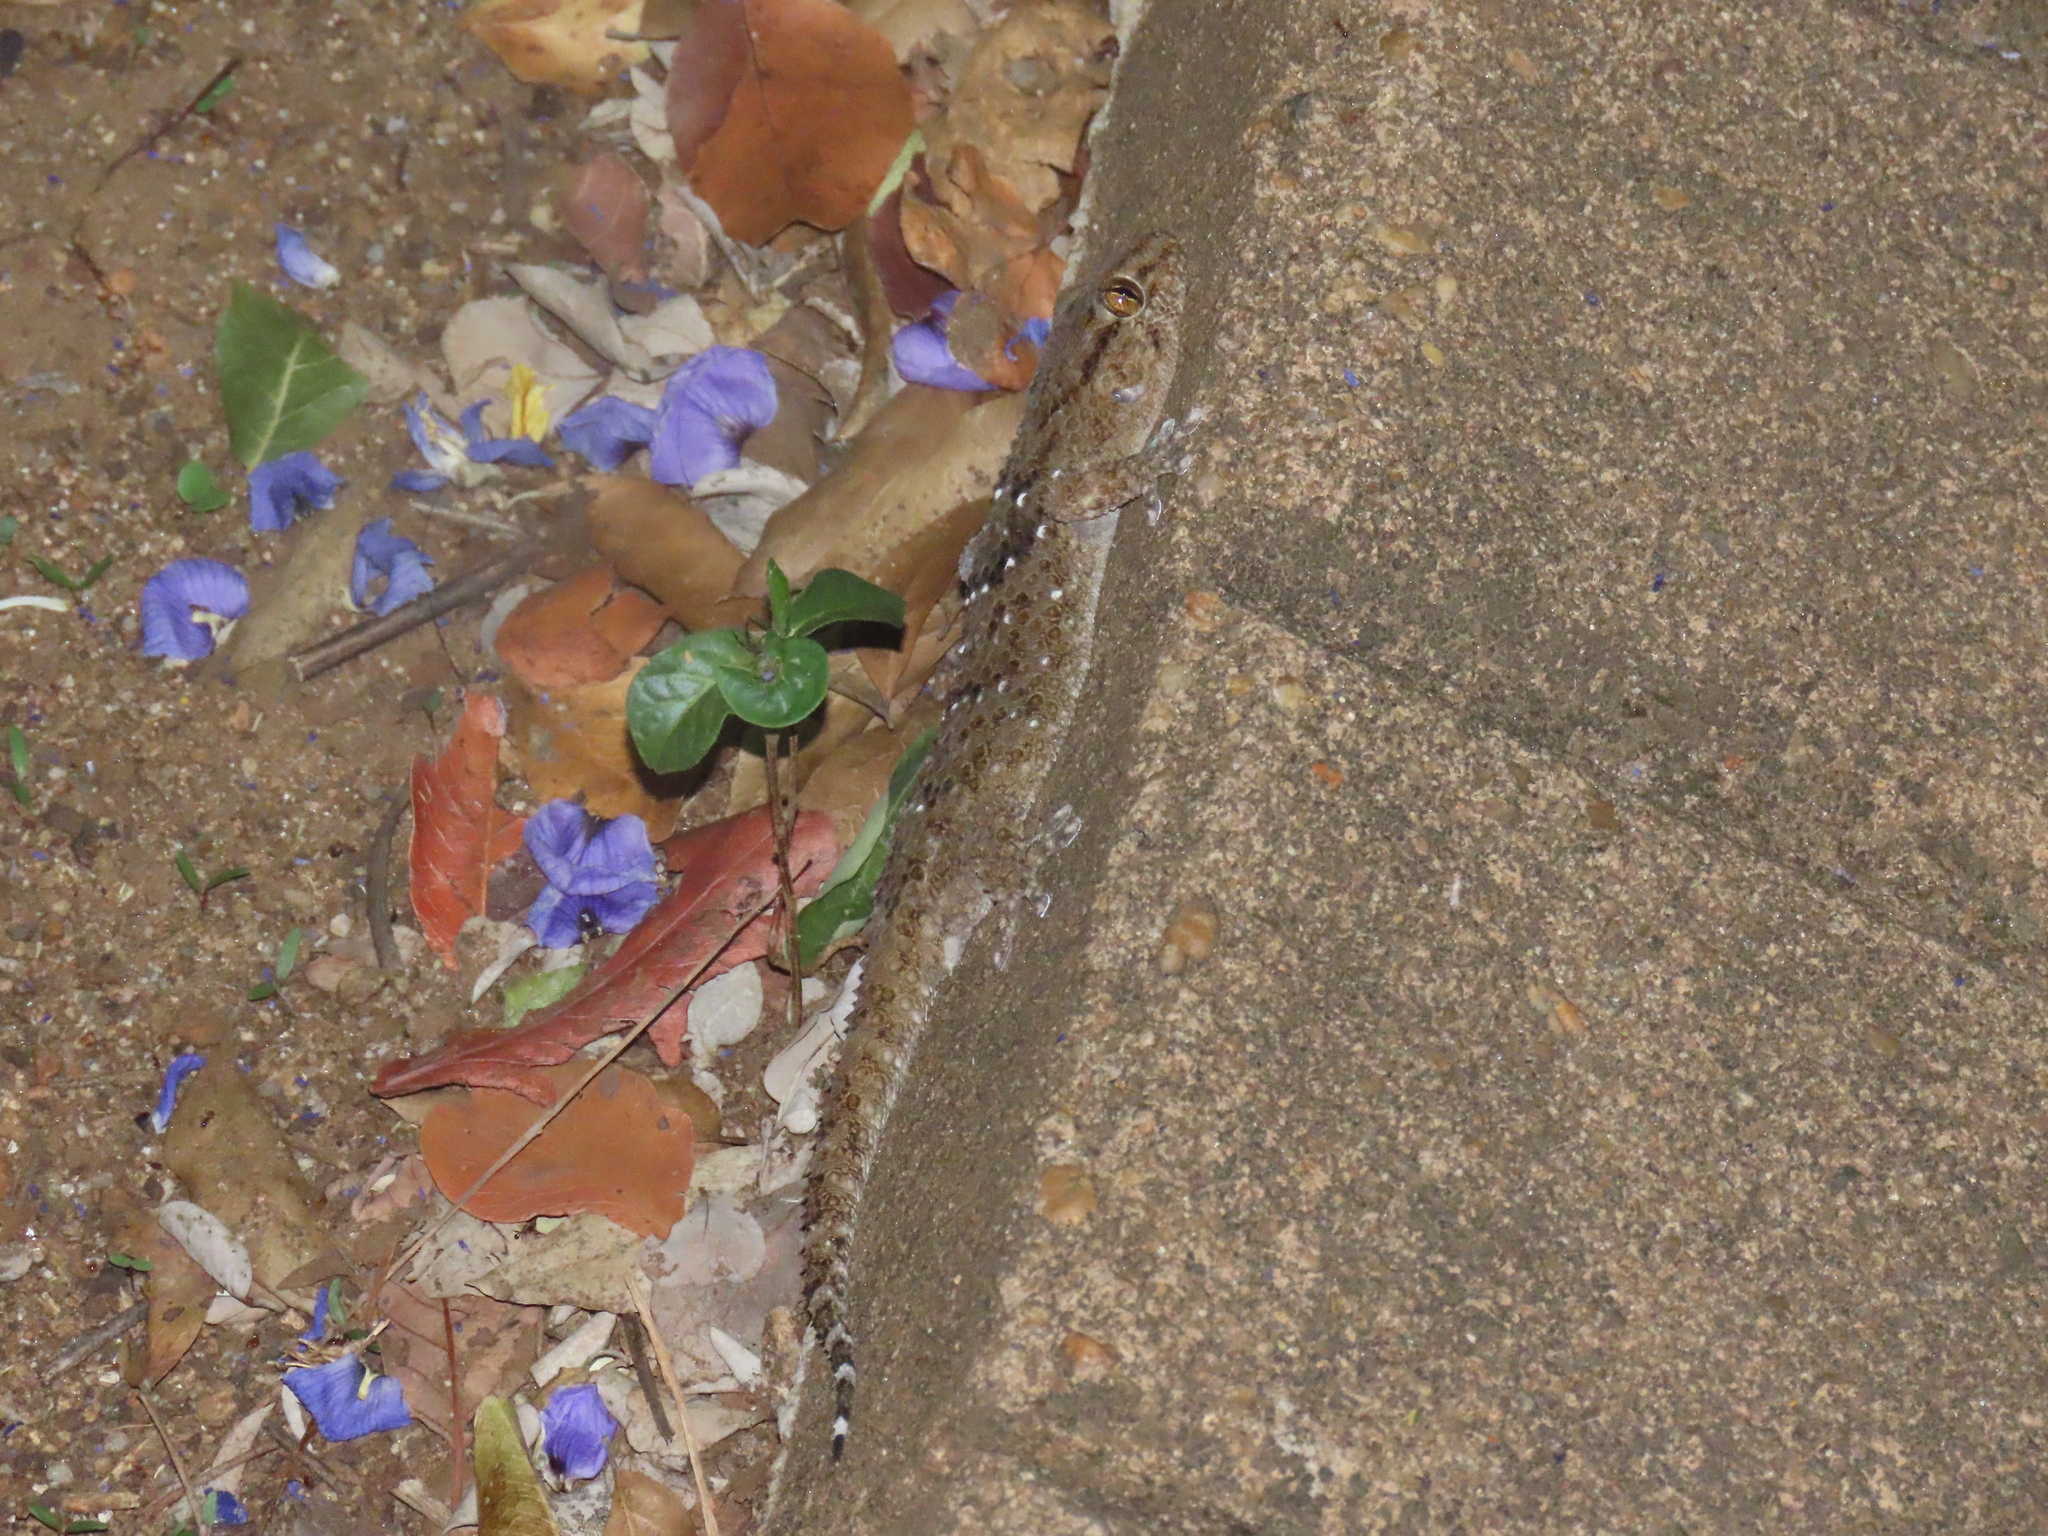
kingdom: Animalia
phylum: Chordata
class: Squamata
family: Gekkonidae
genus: Chondrodactylus
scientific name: Chondrodactylus turneri
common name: Turner’s gecko
